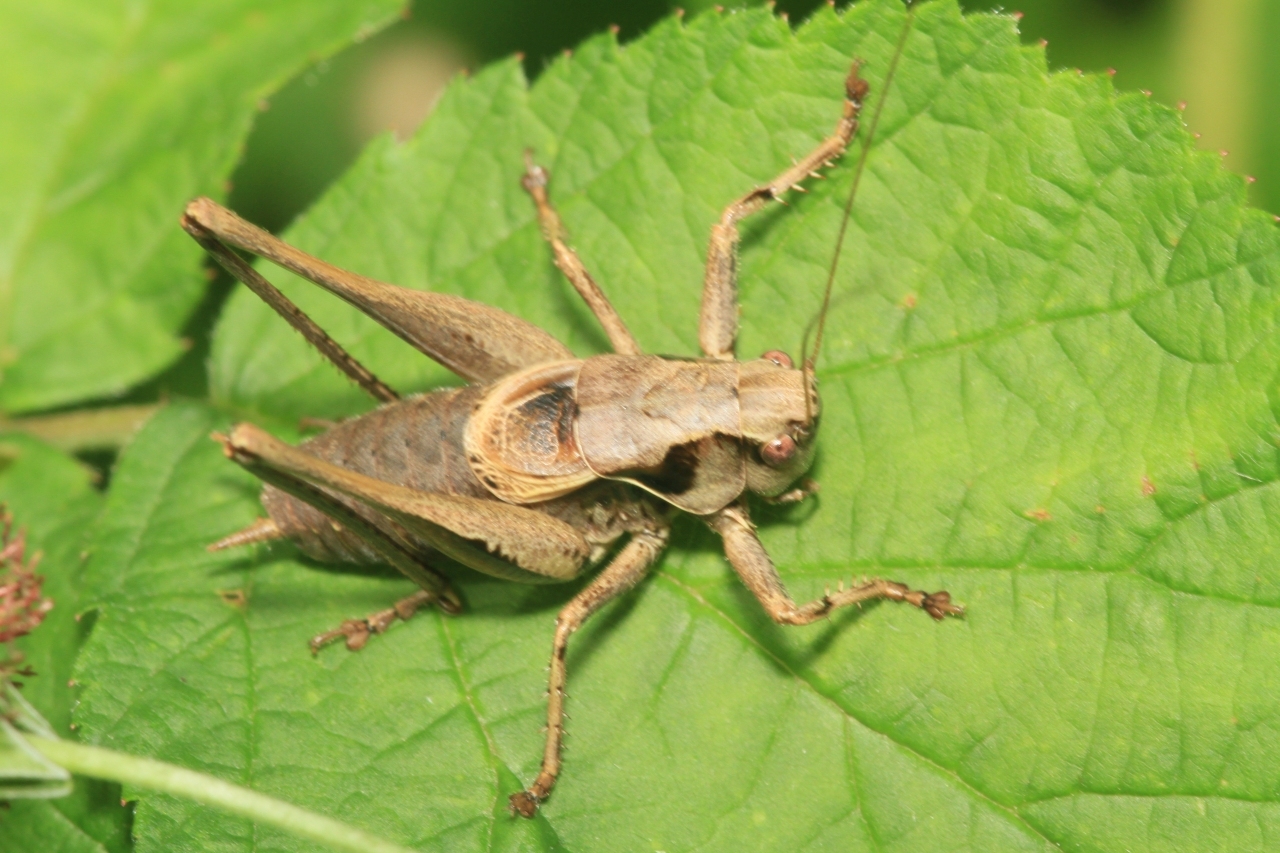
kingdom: Animalia
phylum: Arthropoda
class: Insecta
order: Orthoptera
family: Tettigoniidae
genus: Pholidoptera
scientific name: Pholidoptera griseoaptera
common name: Dark bush-cricket
